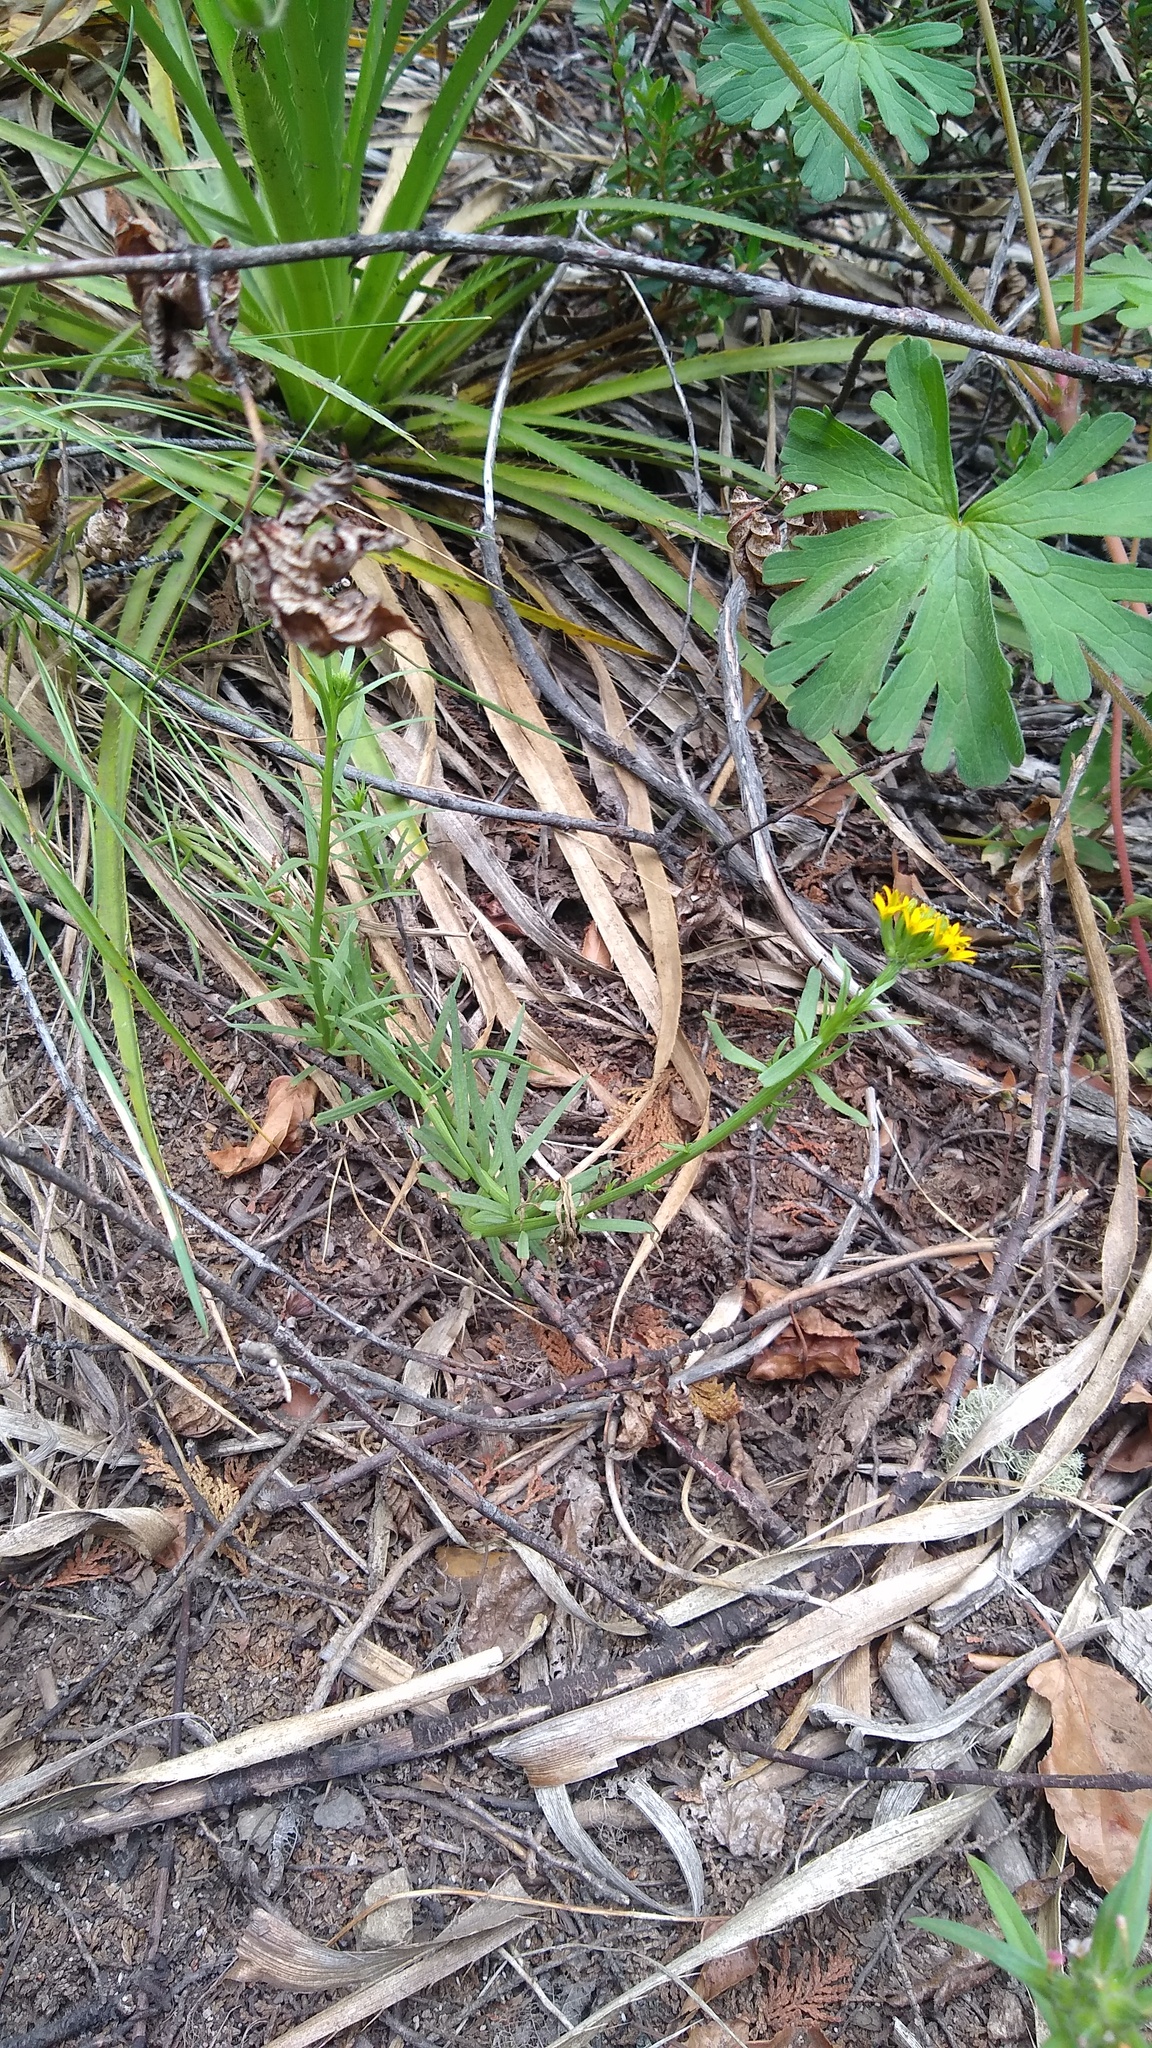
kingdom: Plantae
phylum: Tracheophyta
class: Magnoliopsida
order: Santalales
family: Schoepfiaceae
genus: Quinchamalium
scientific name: Quinchamalium chilense
